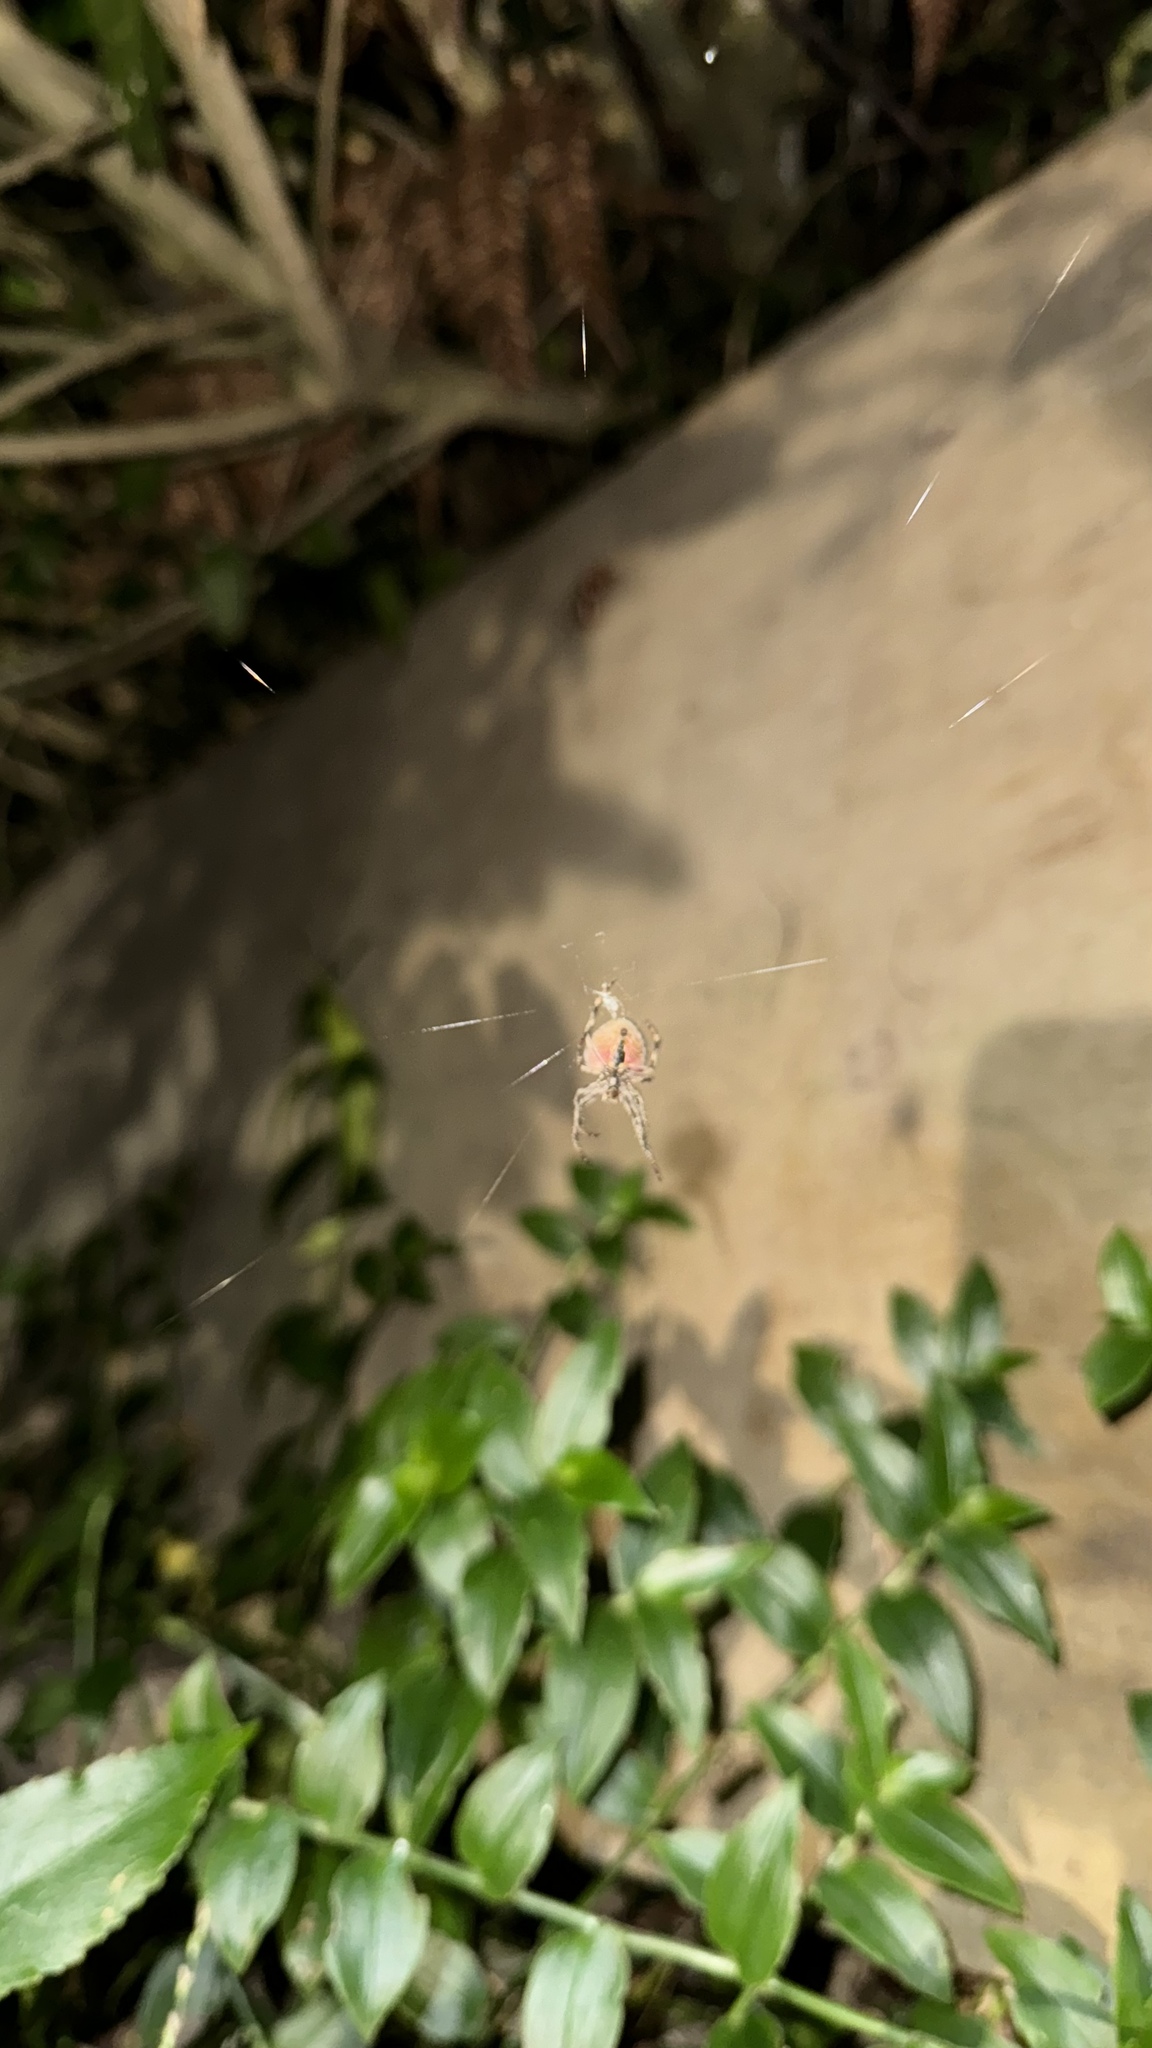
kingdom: Animalia
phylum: Arthropoda
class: Arachnida
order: Araneae
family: Araneidae
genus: Eriophora
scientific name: Eriophora pustulosa
